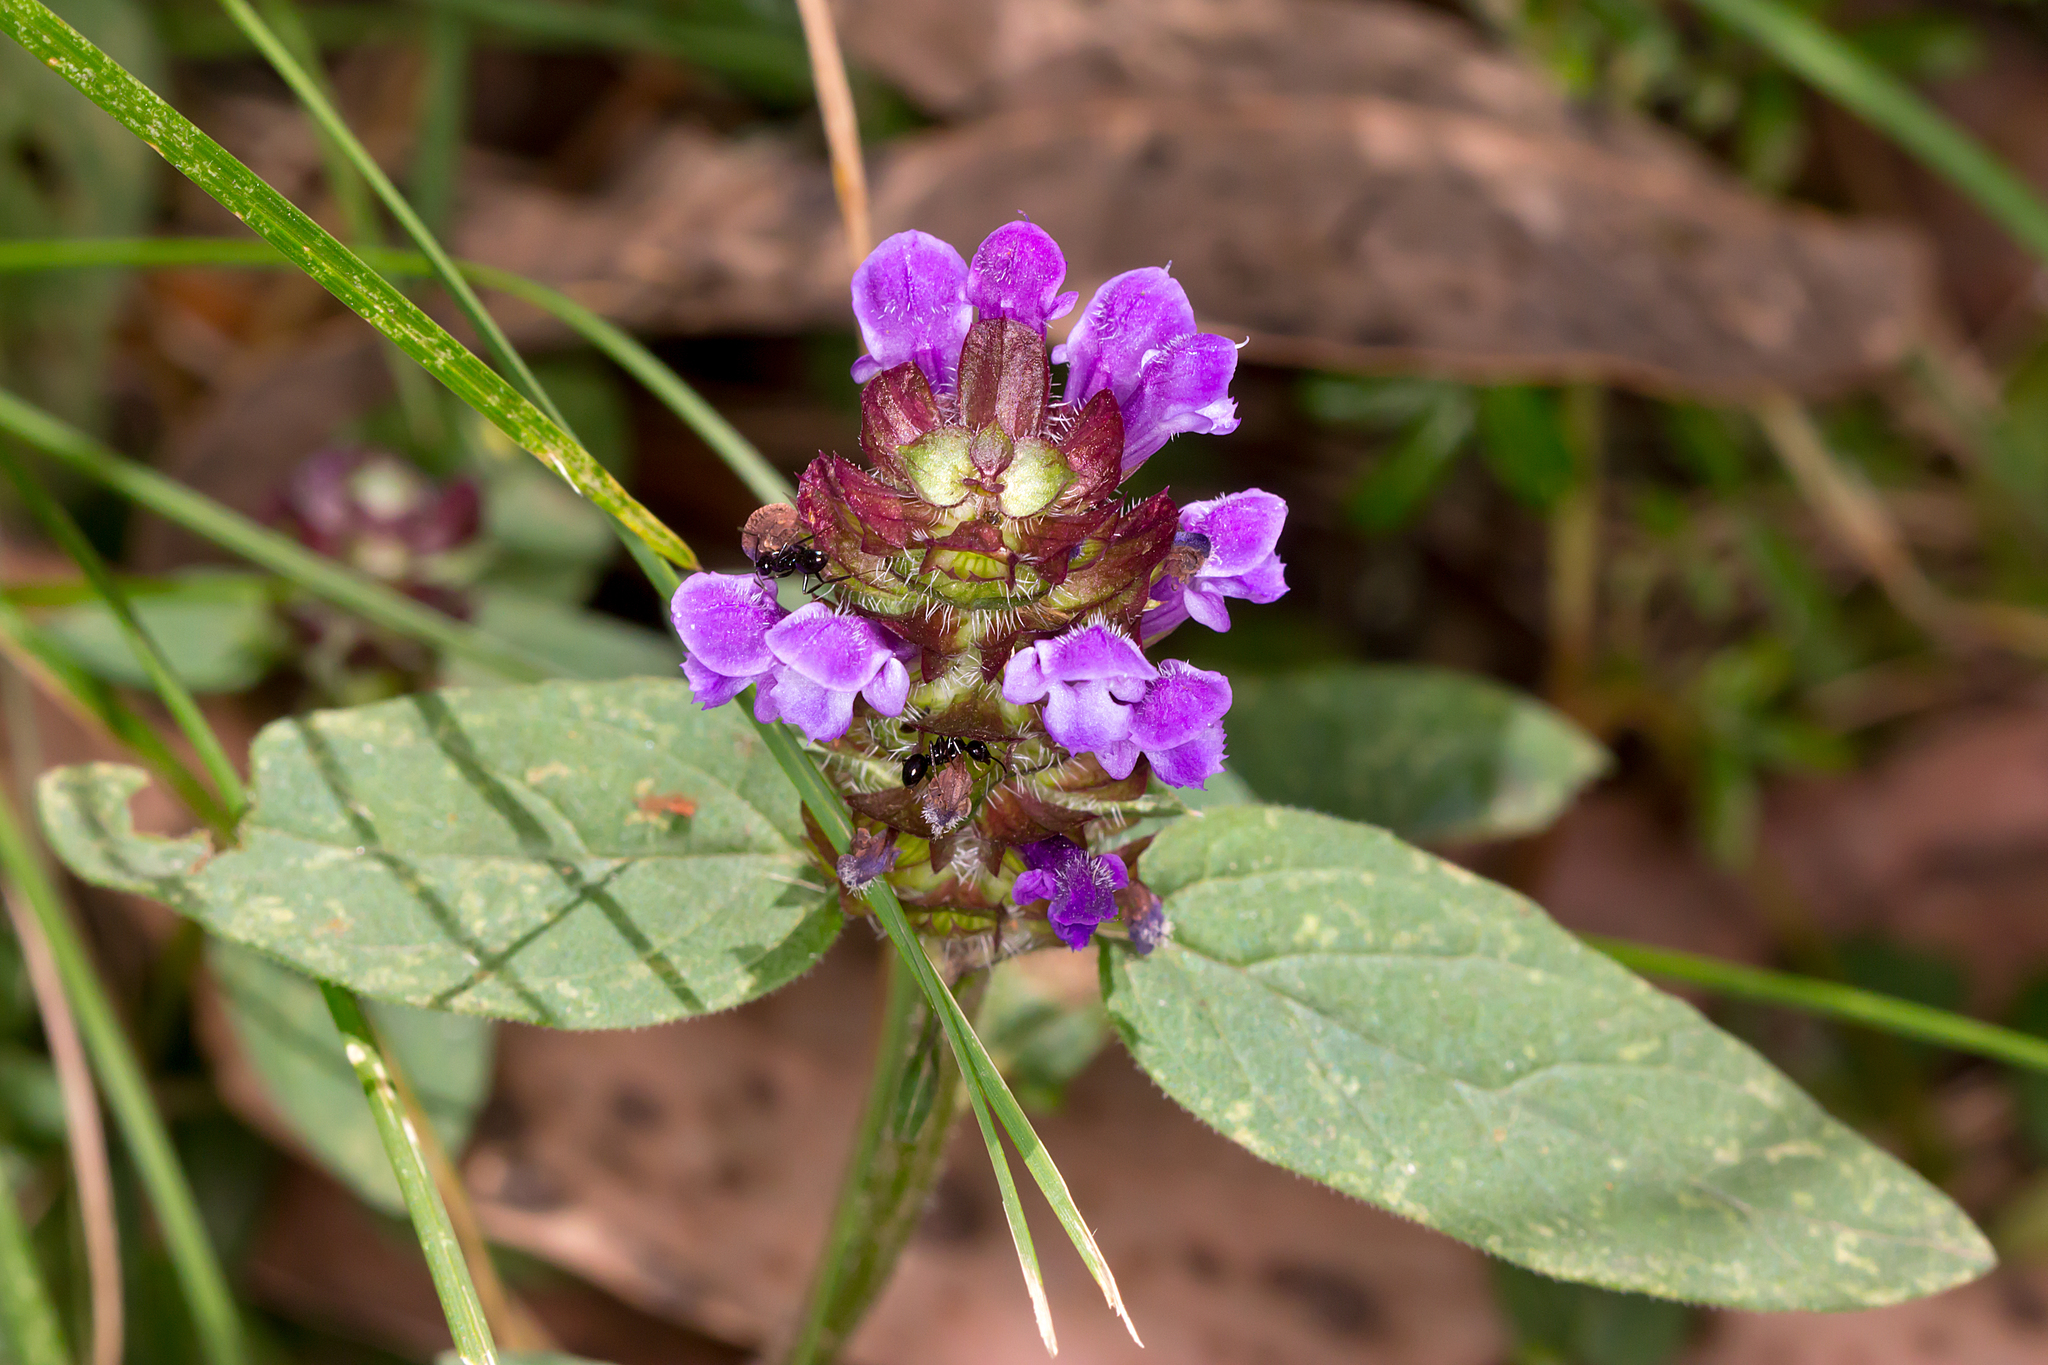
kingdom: Plantae
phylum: Tracheophyta
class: Magnoliopsida
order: Lamiales
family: Lamiaceae
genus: Prunella
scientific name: Prunella vulgaris
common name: Heal-all
